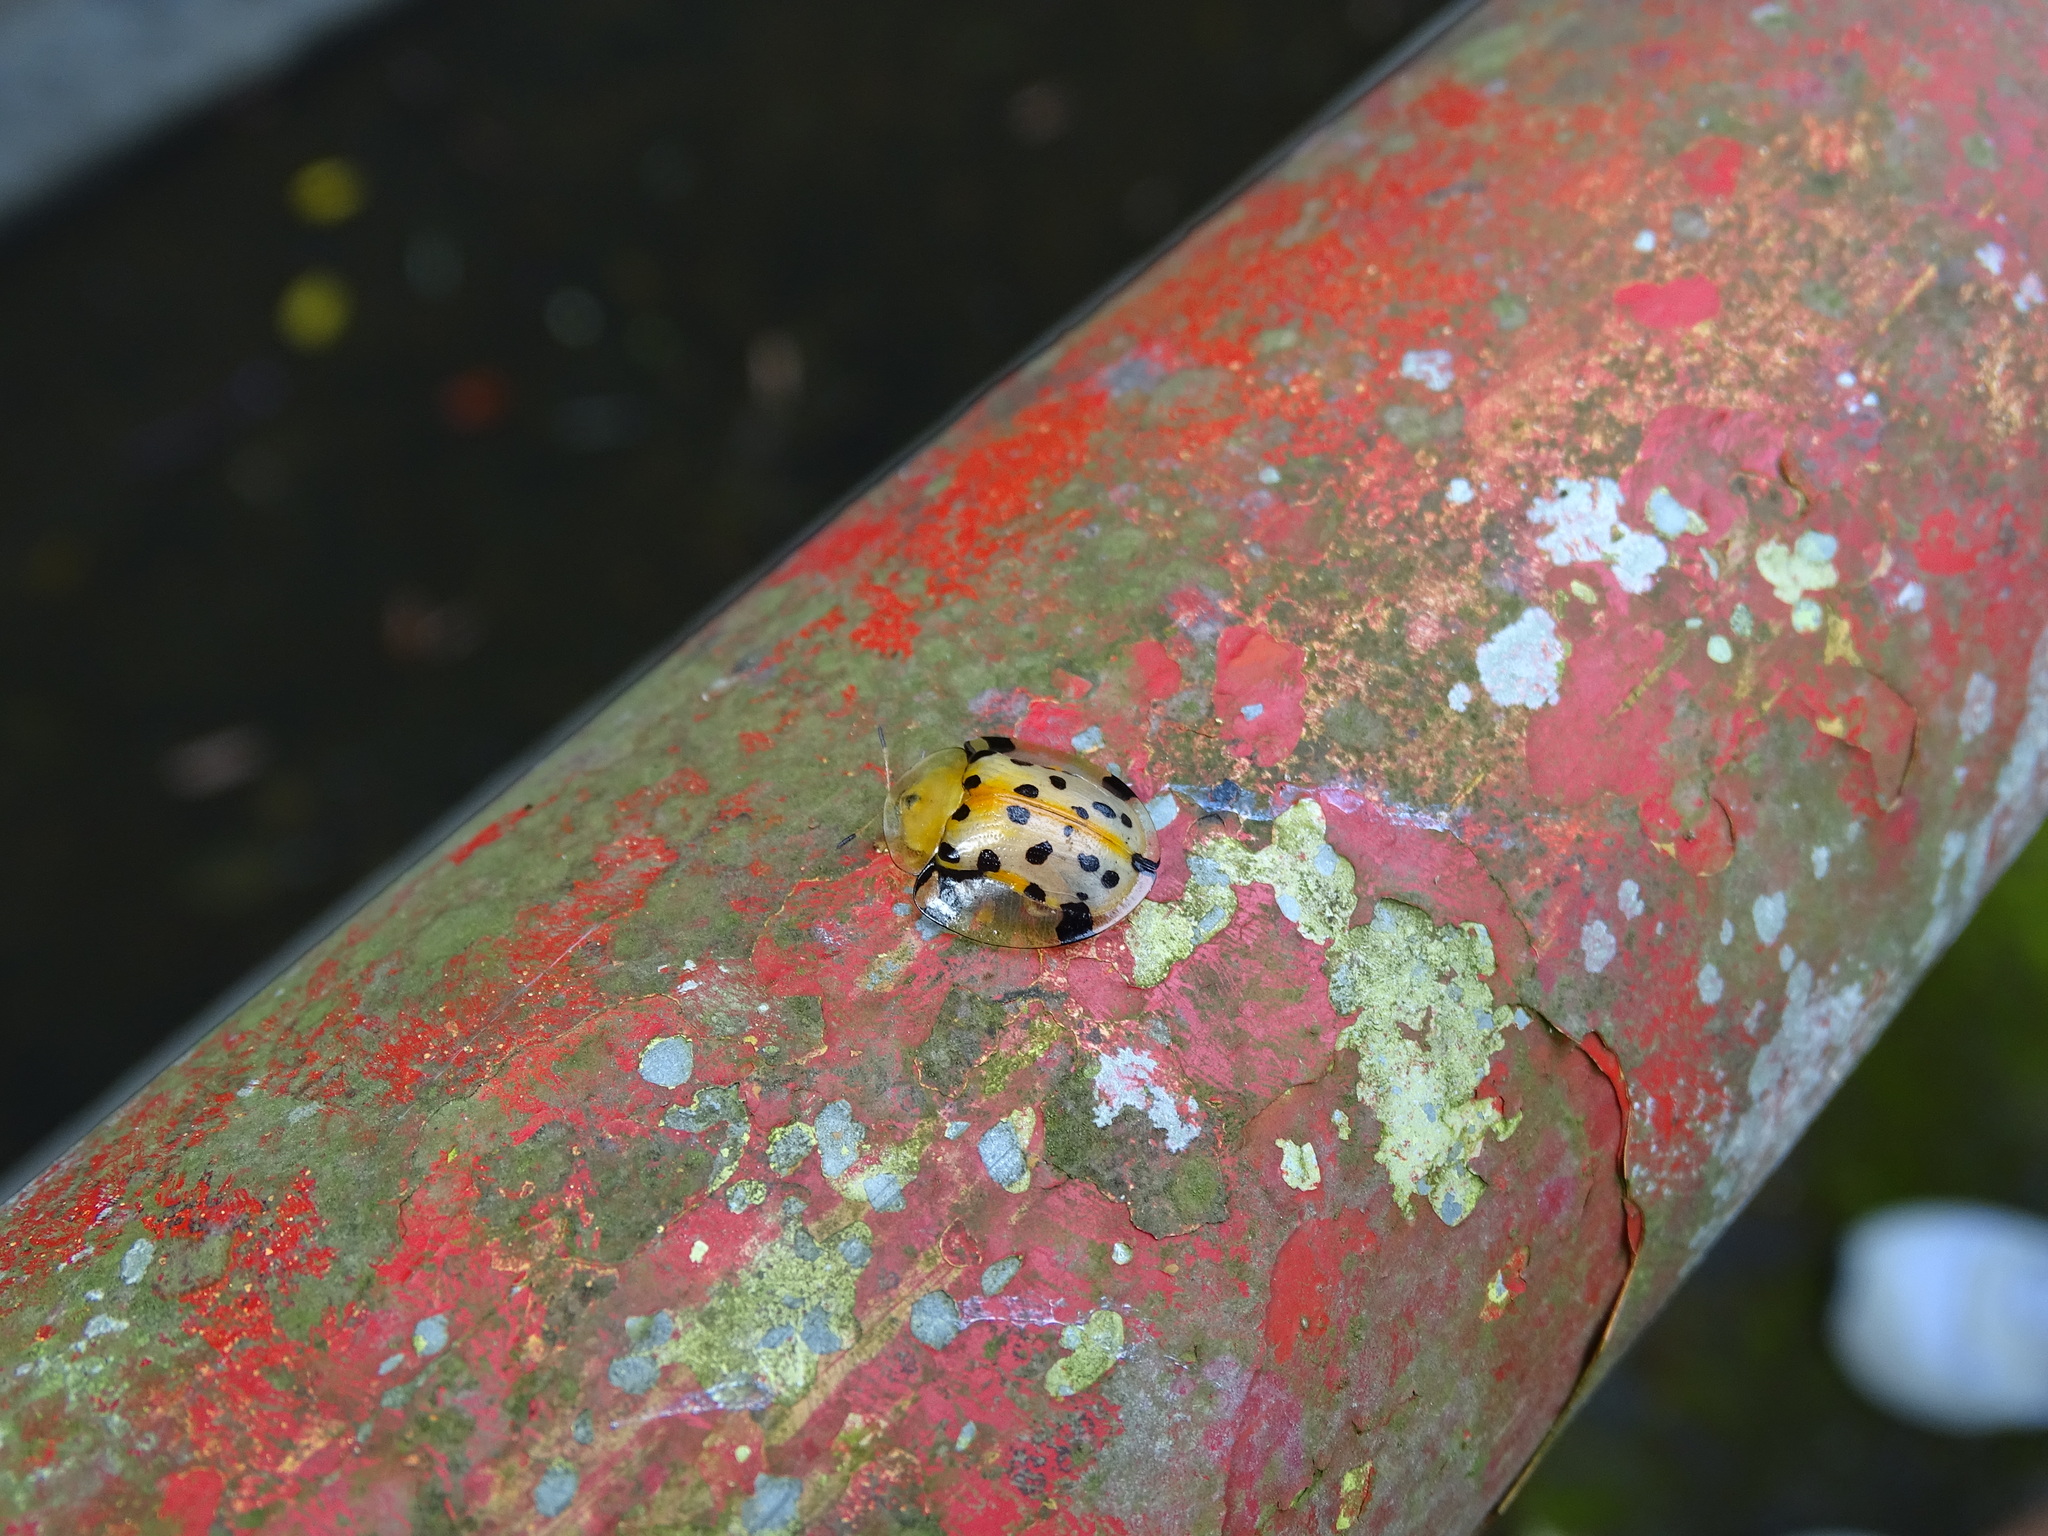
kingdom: Animalia
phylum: Arthropoda
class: Insecta
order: Coleoptera
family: Chrysomelidae
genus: Aspidimorpha
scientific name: Aspidimorpha miliaris
